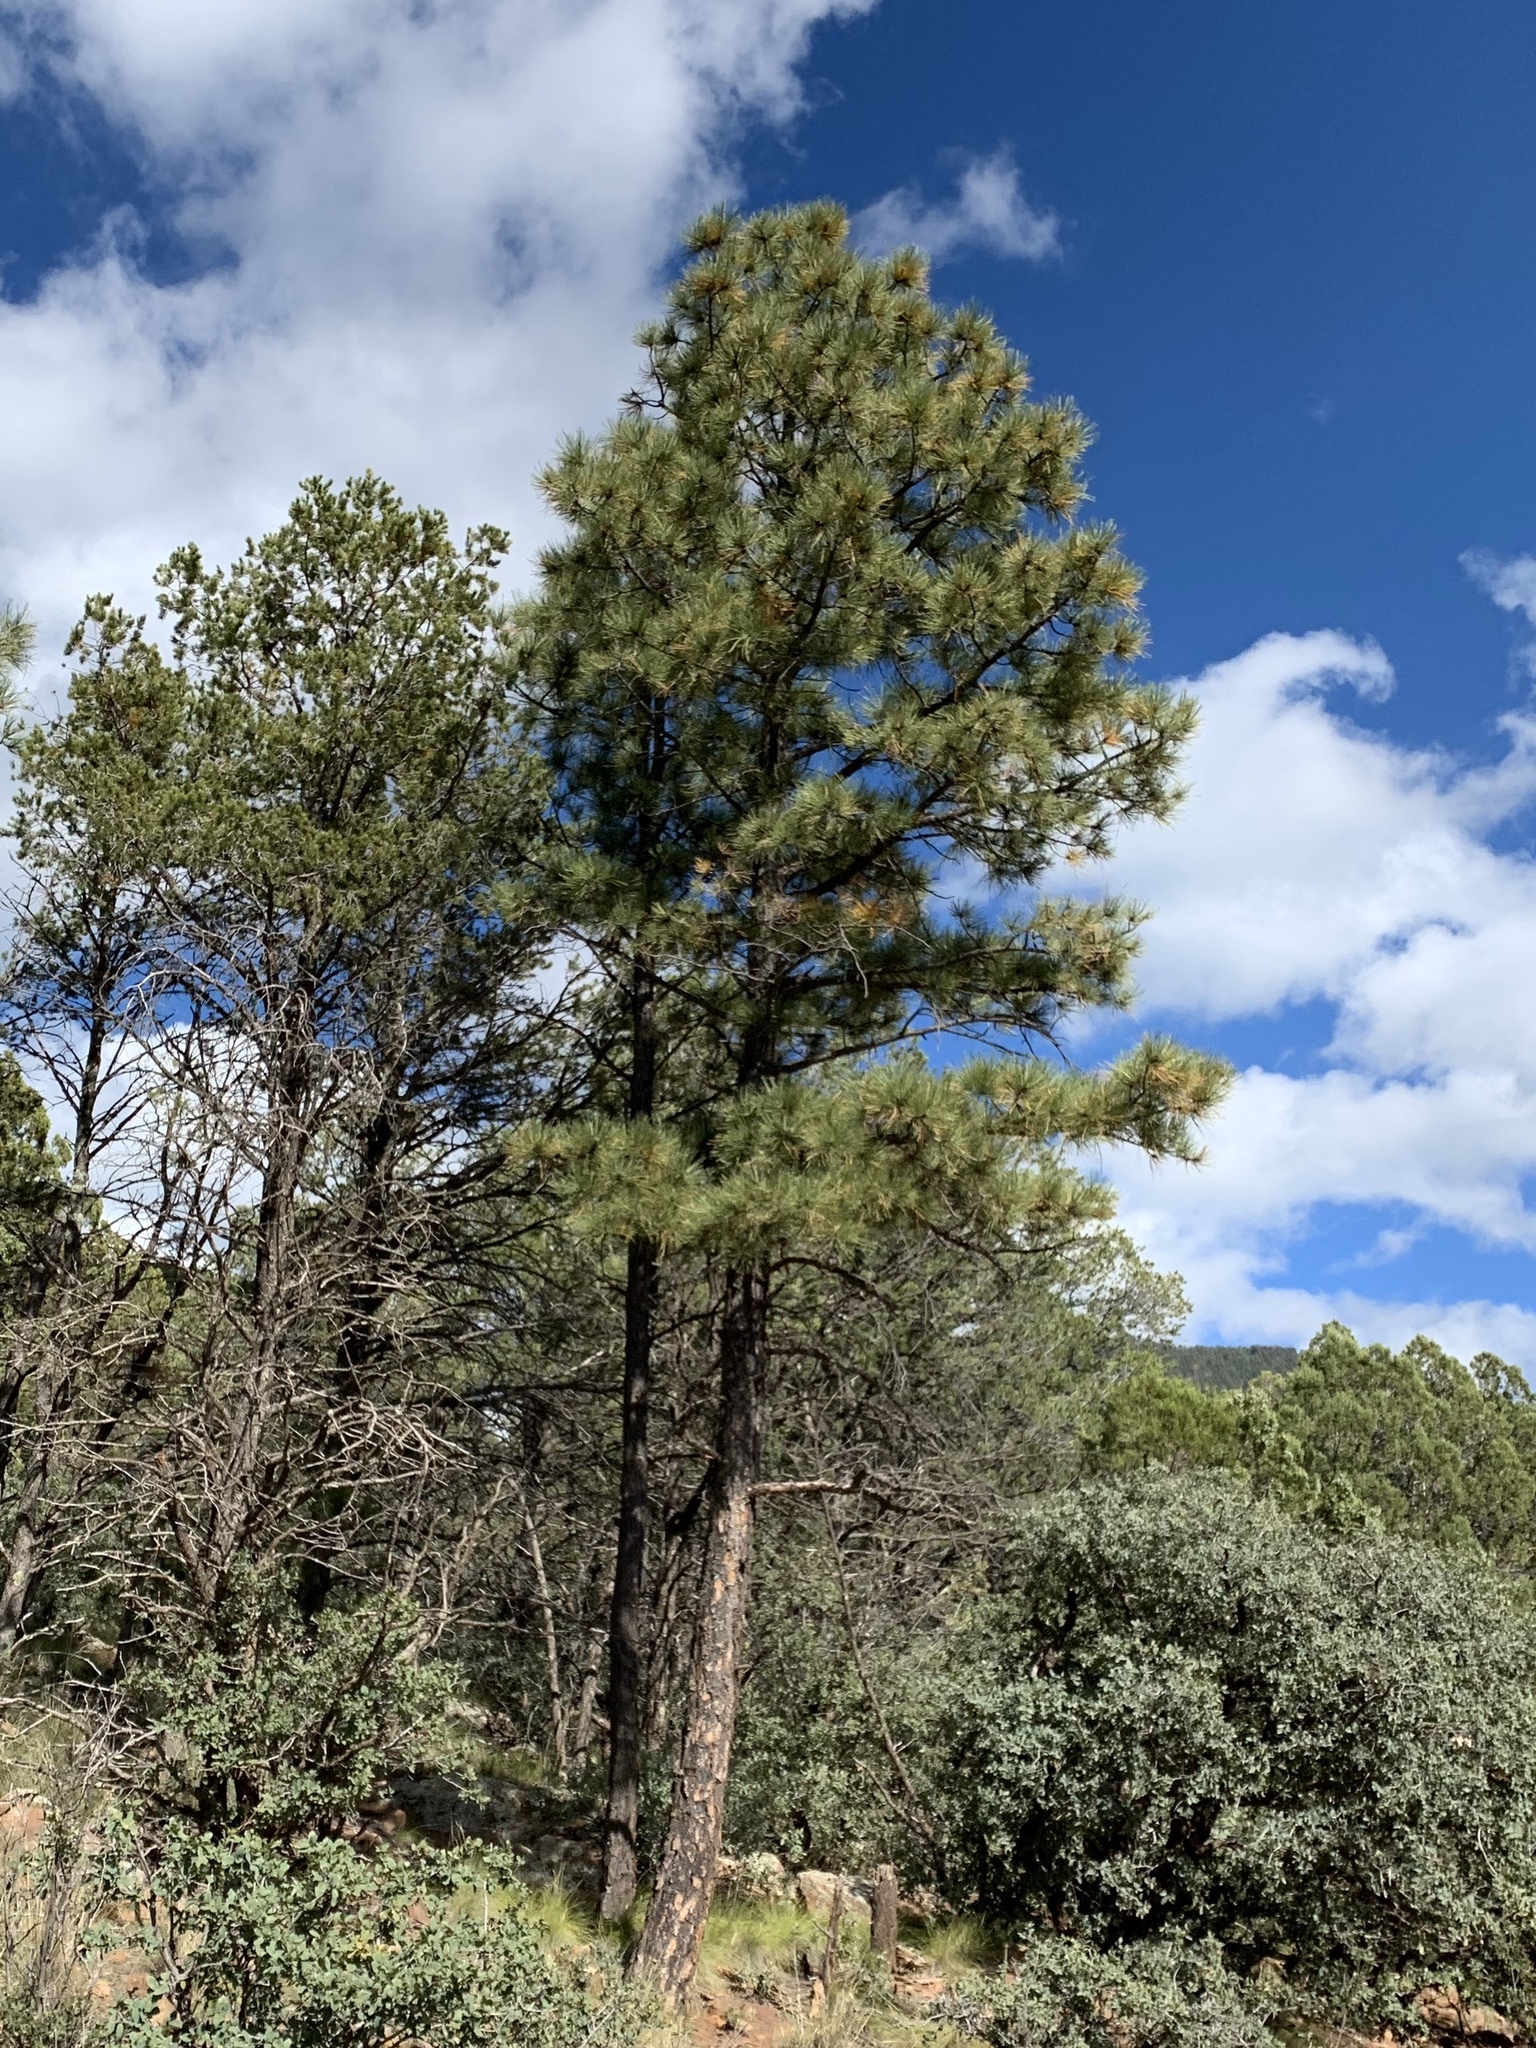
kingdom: Plantae
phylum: Tracheophyta
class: Pinopsida
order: Pinales
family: Pinaceae
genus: Pinus
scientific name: Pinus ponderosa
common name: Western yellow-pine
